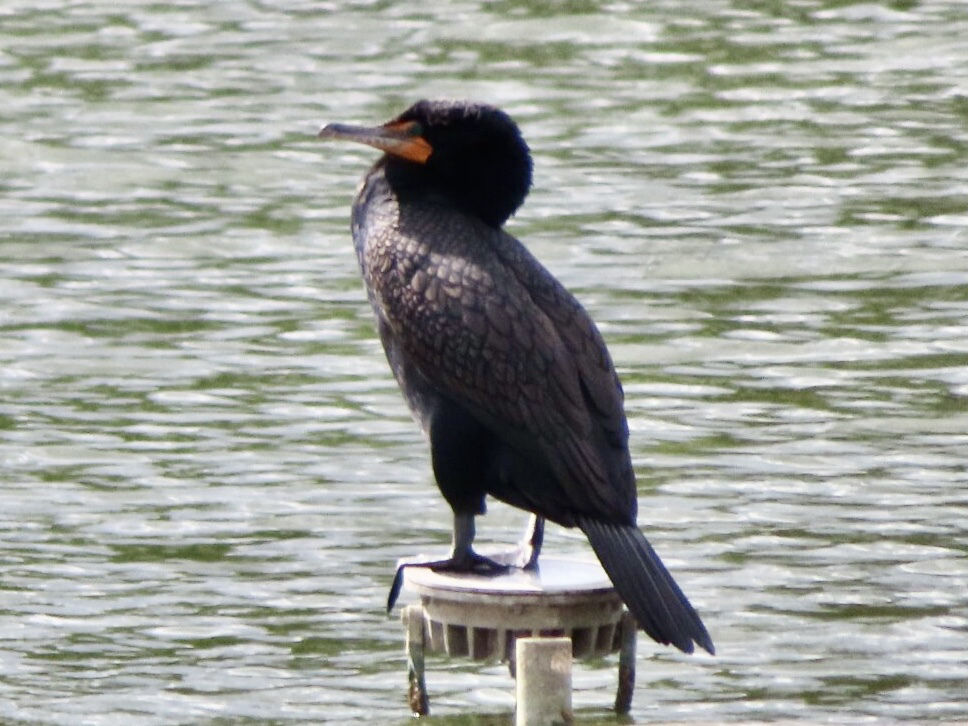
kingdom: Animalia
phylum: Chordata
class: Aves
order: Suliformes
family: Phalacrocoracidae
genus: Phalacrocorax
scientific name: Phalacrocorax auritus
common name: Double-crested cormorant
